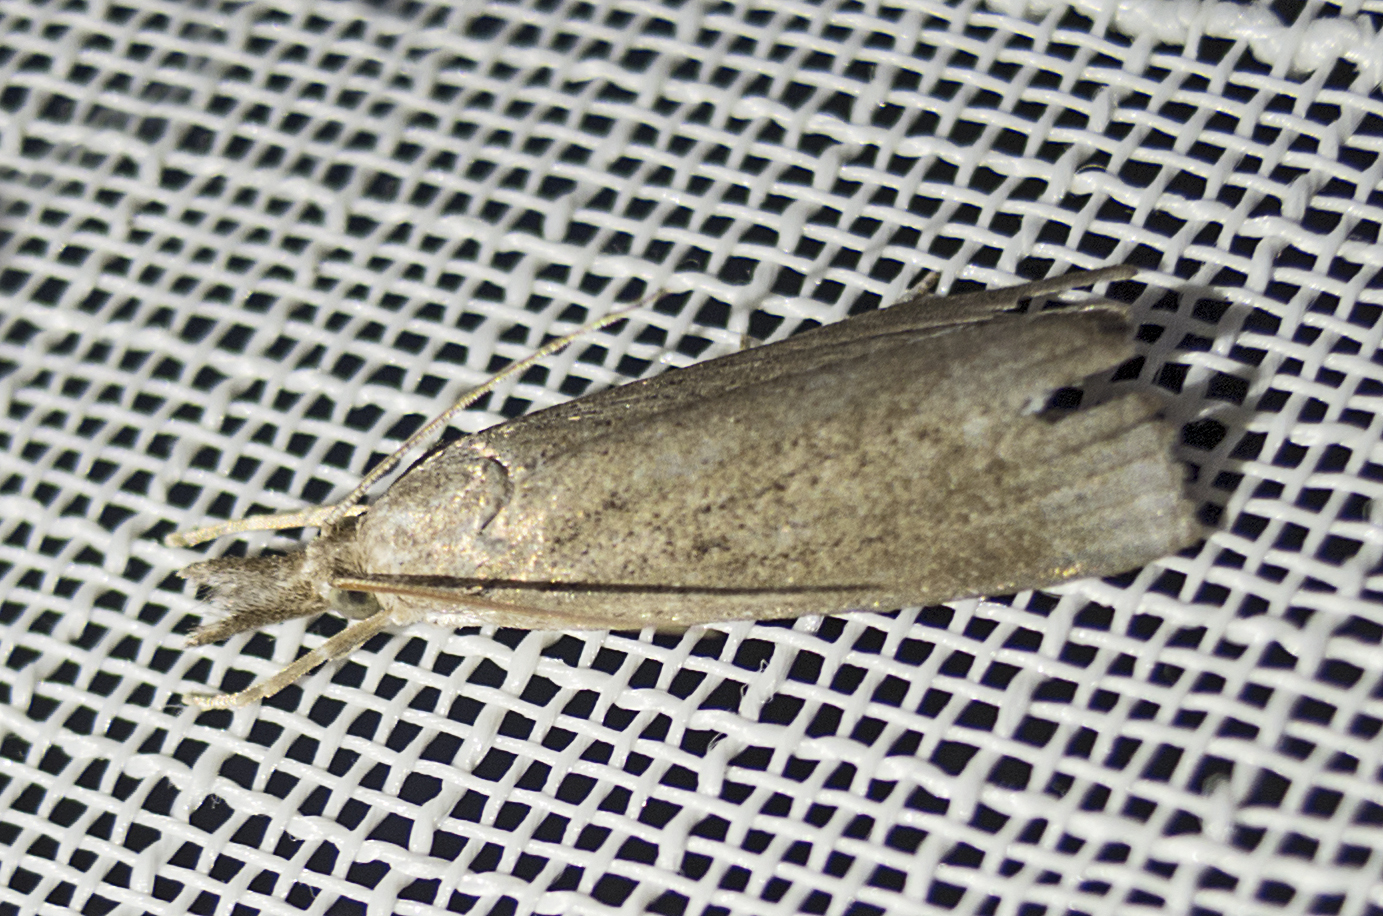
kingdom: Animalia
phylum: Arthropoda
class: Insecta
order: Lepidoptera
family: Crambidae
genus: Calamotropha
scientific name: Calamotropha paludella
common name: Bulrush veneer
